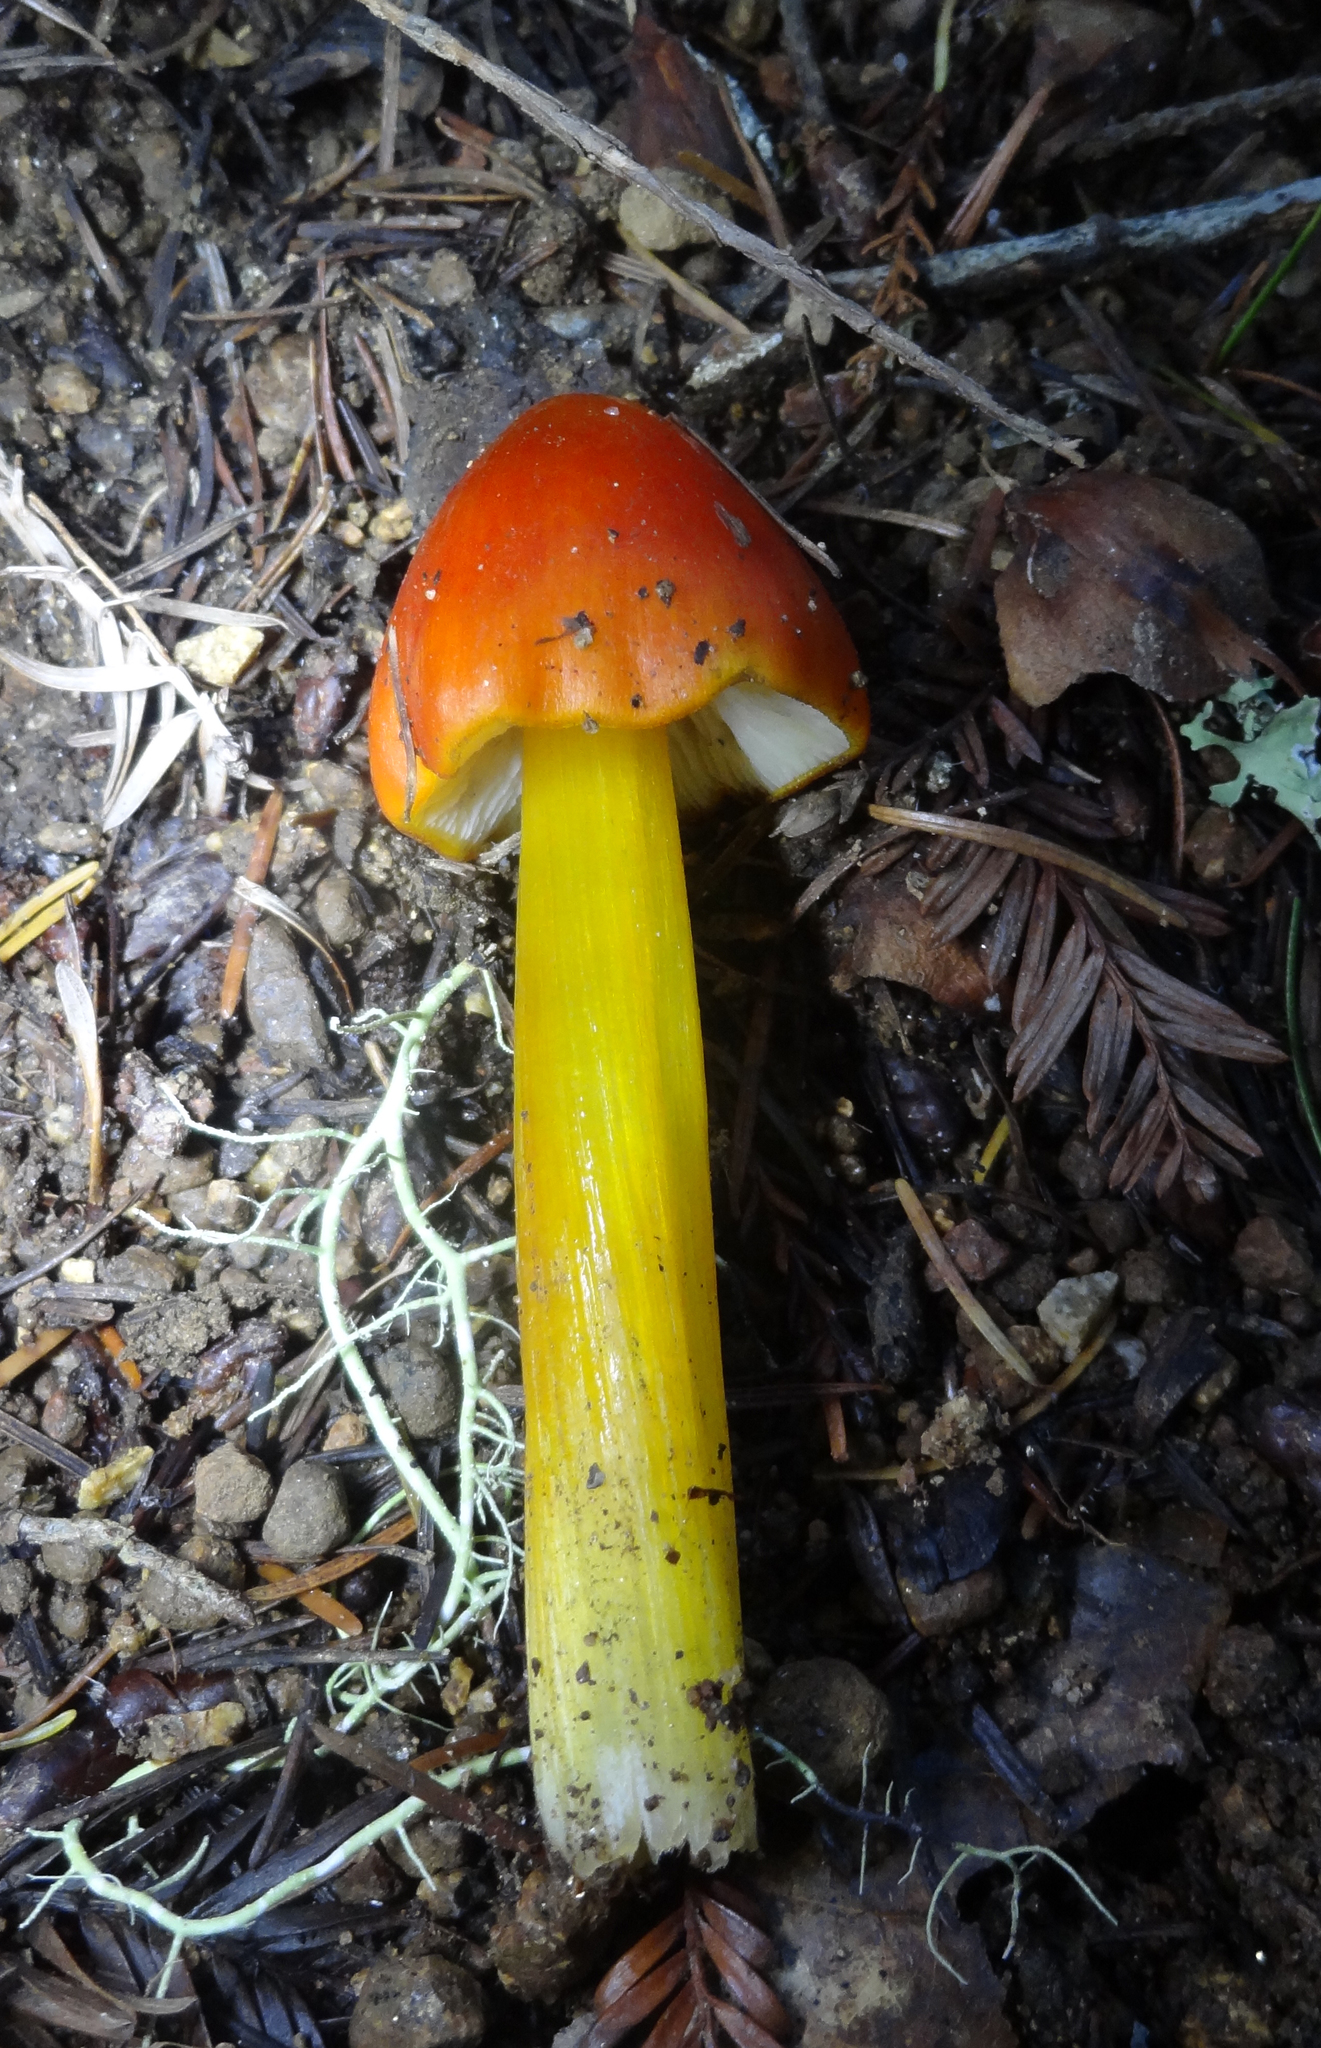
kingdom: Fungi
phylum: Basidiomycota
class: Agaricomycetes
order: Agaricales
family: Hygrophoraceae
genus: Hygrocybe
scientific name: Hygrocybe singeri
